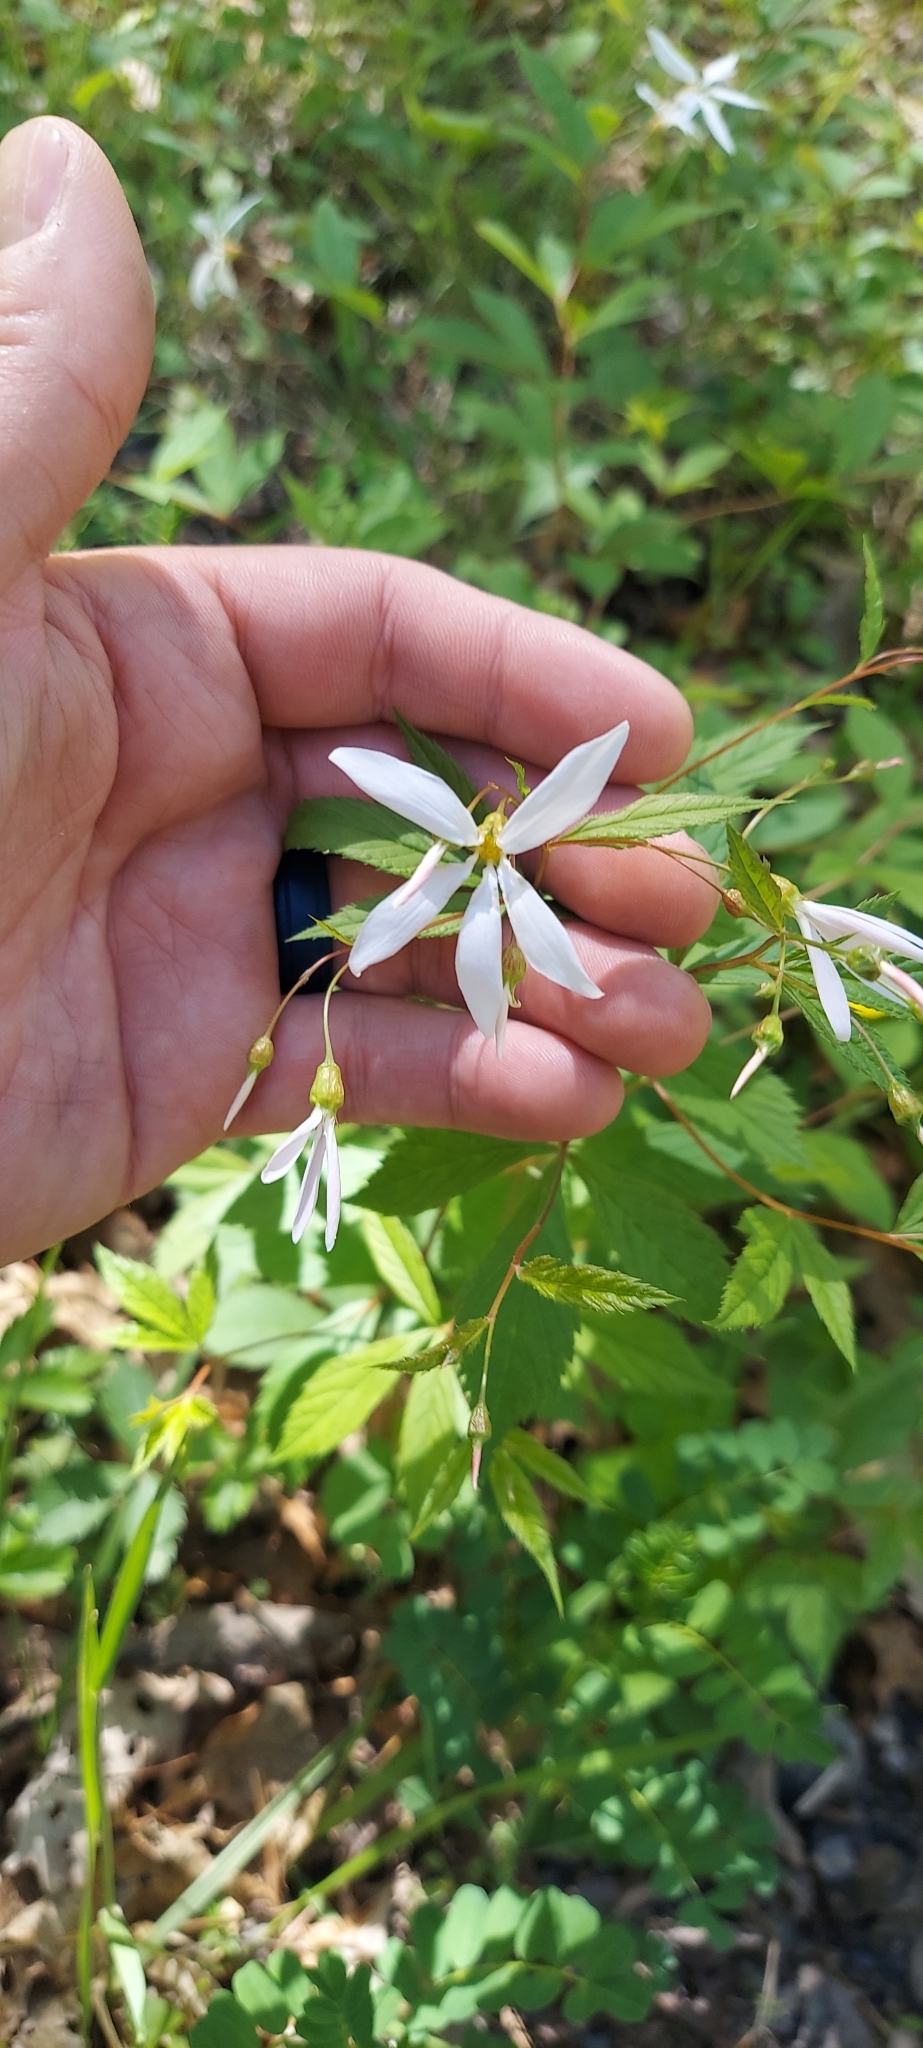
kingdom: Plantae
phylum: Tracheophyta
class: Magnoliopsida
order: Rosales
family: Rosaceae
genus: Gillenia
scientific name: Gillenia trifoliata
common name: Bowman's-root
